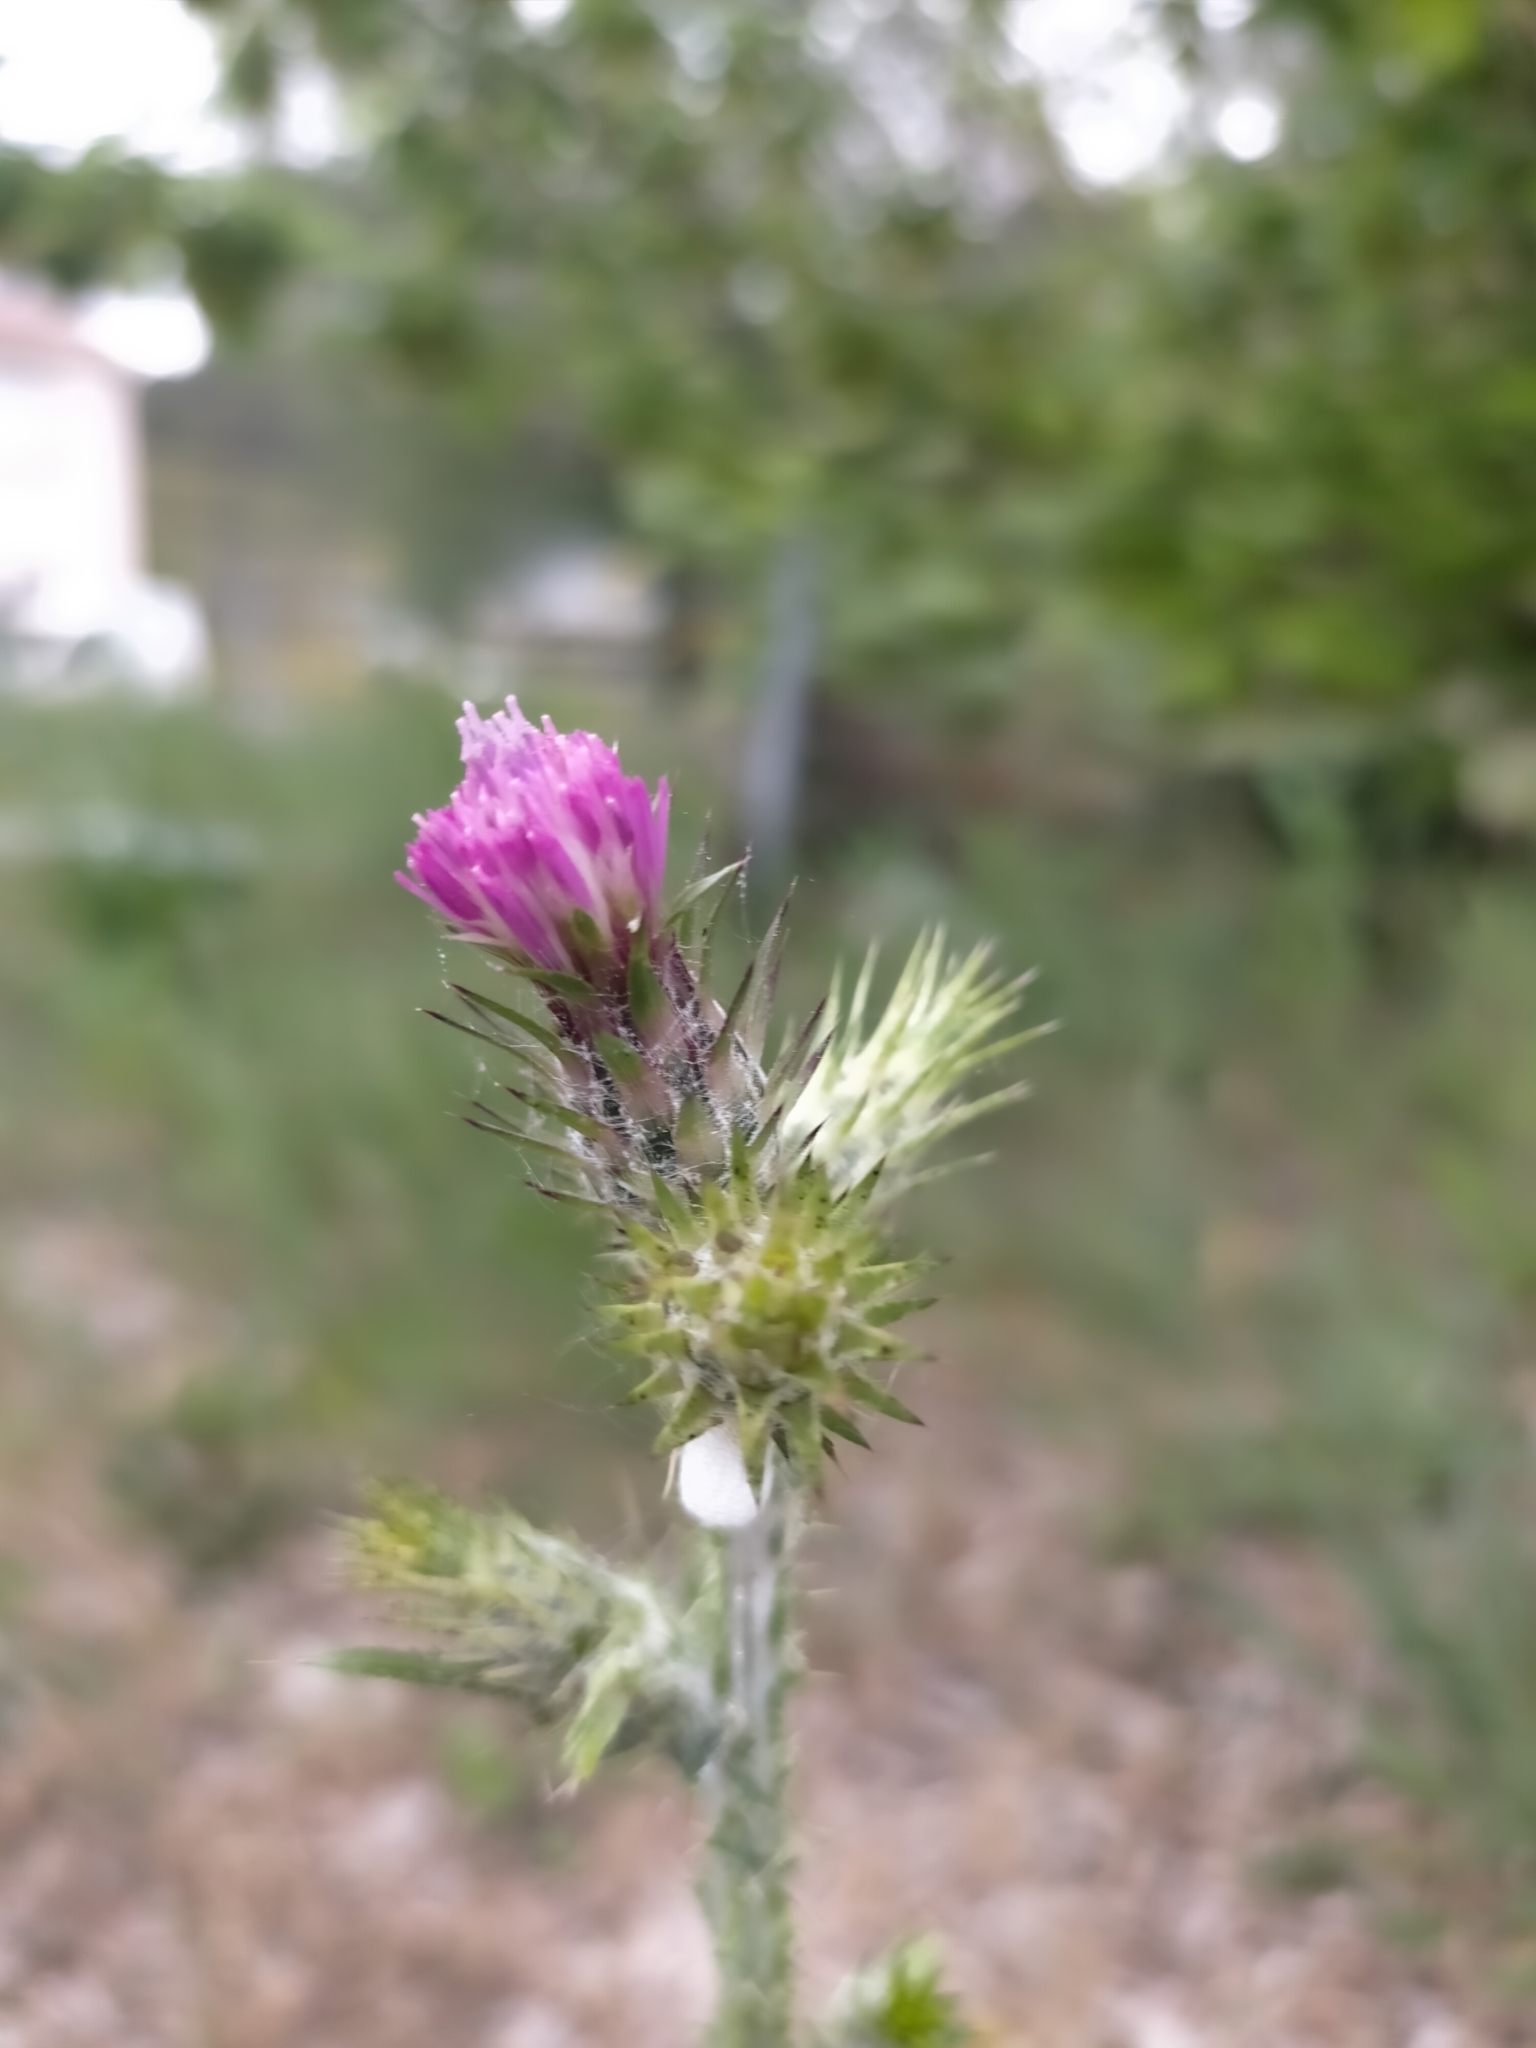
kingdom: Plantae
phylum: Tracheophyta
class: Magnoliopsida
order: Asterales
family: Asteraceae
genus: Carduus
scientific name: Carduus pycnocephalus
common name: Plymouth thistle
